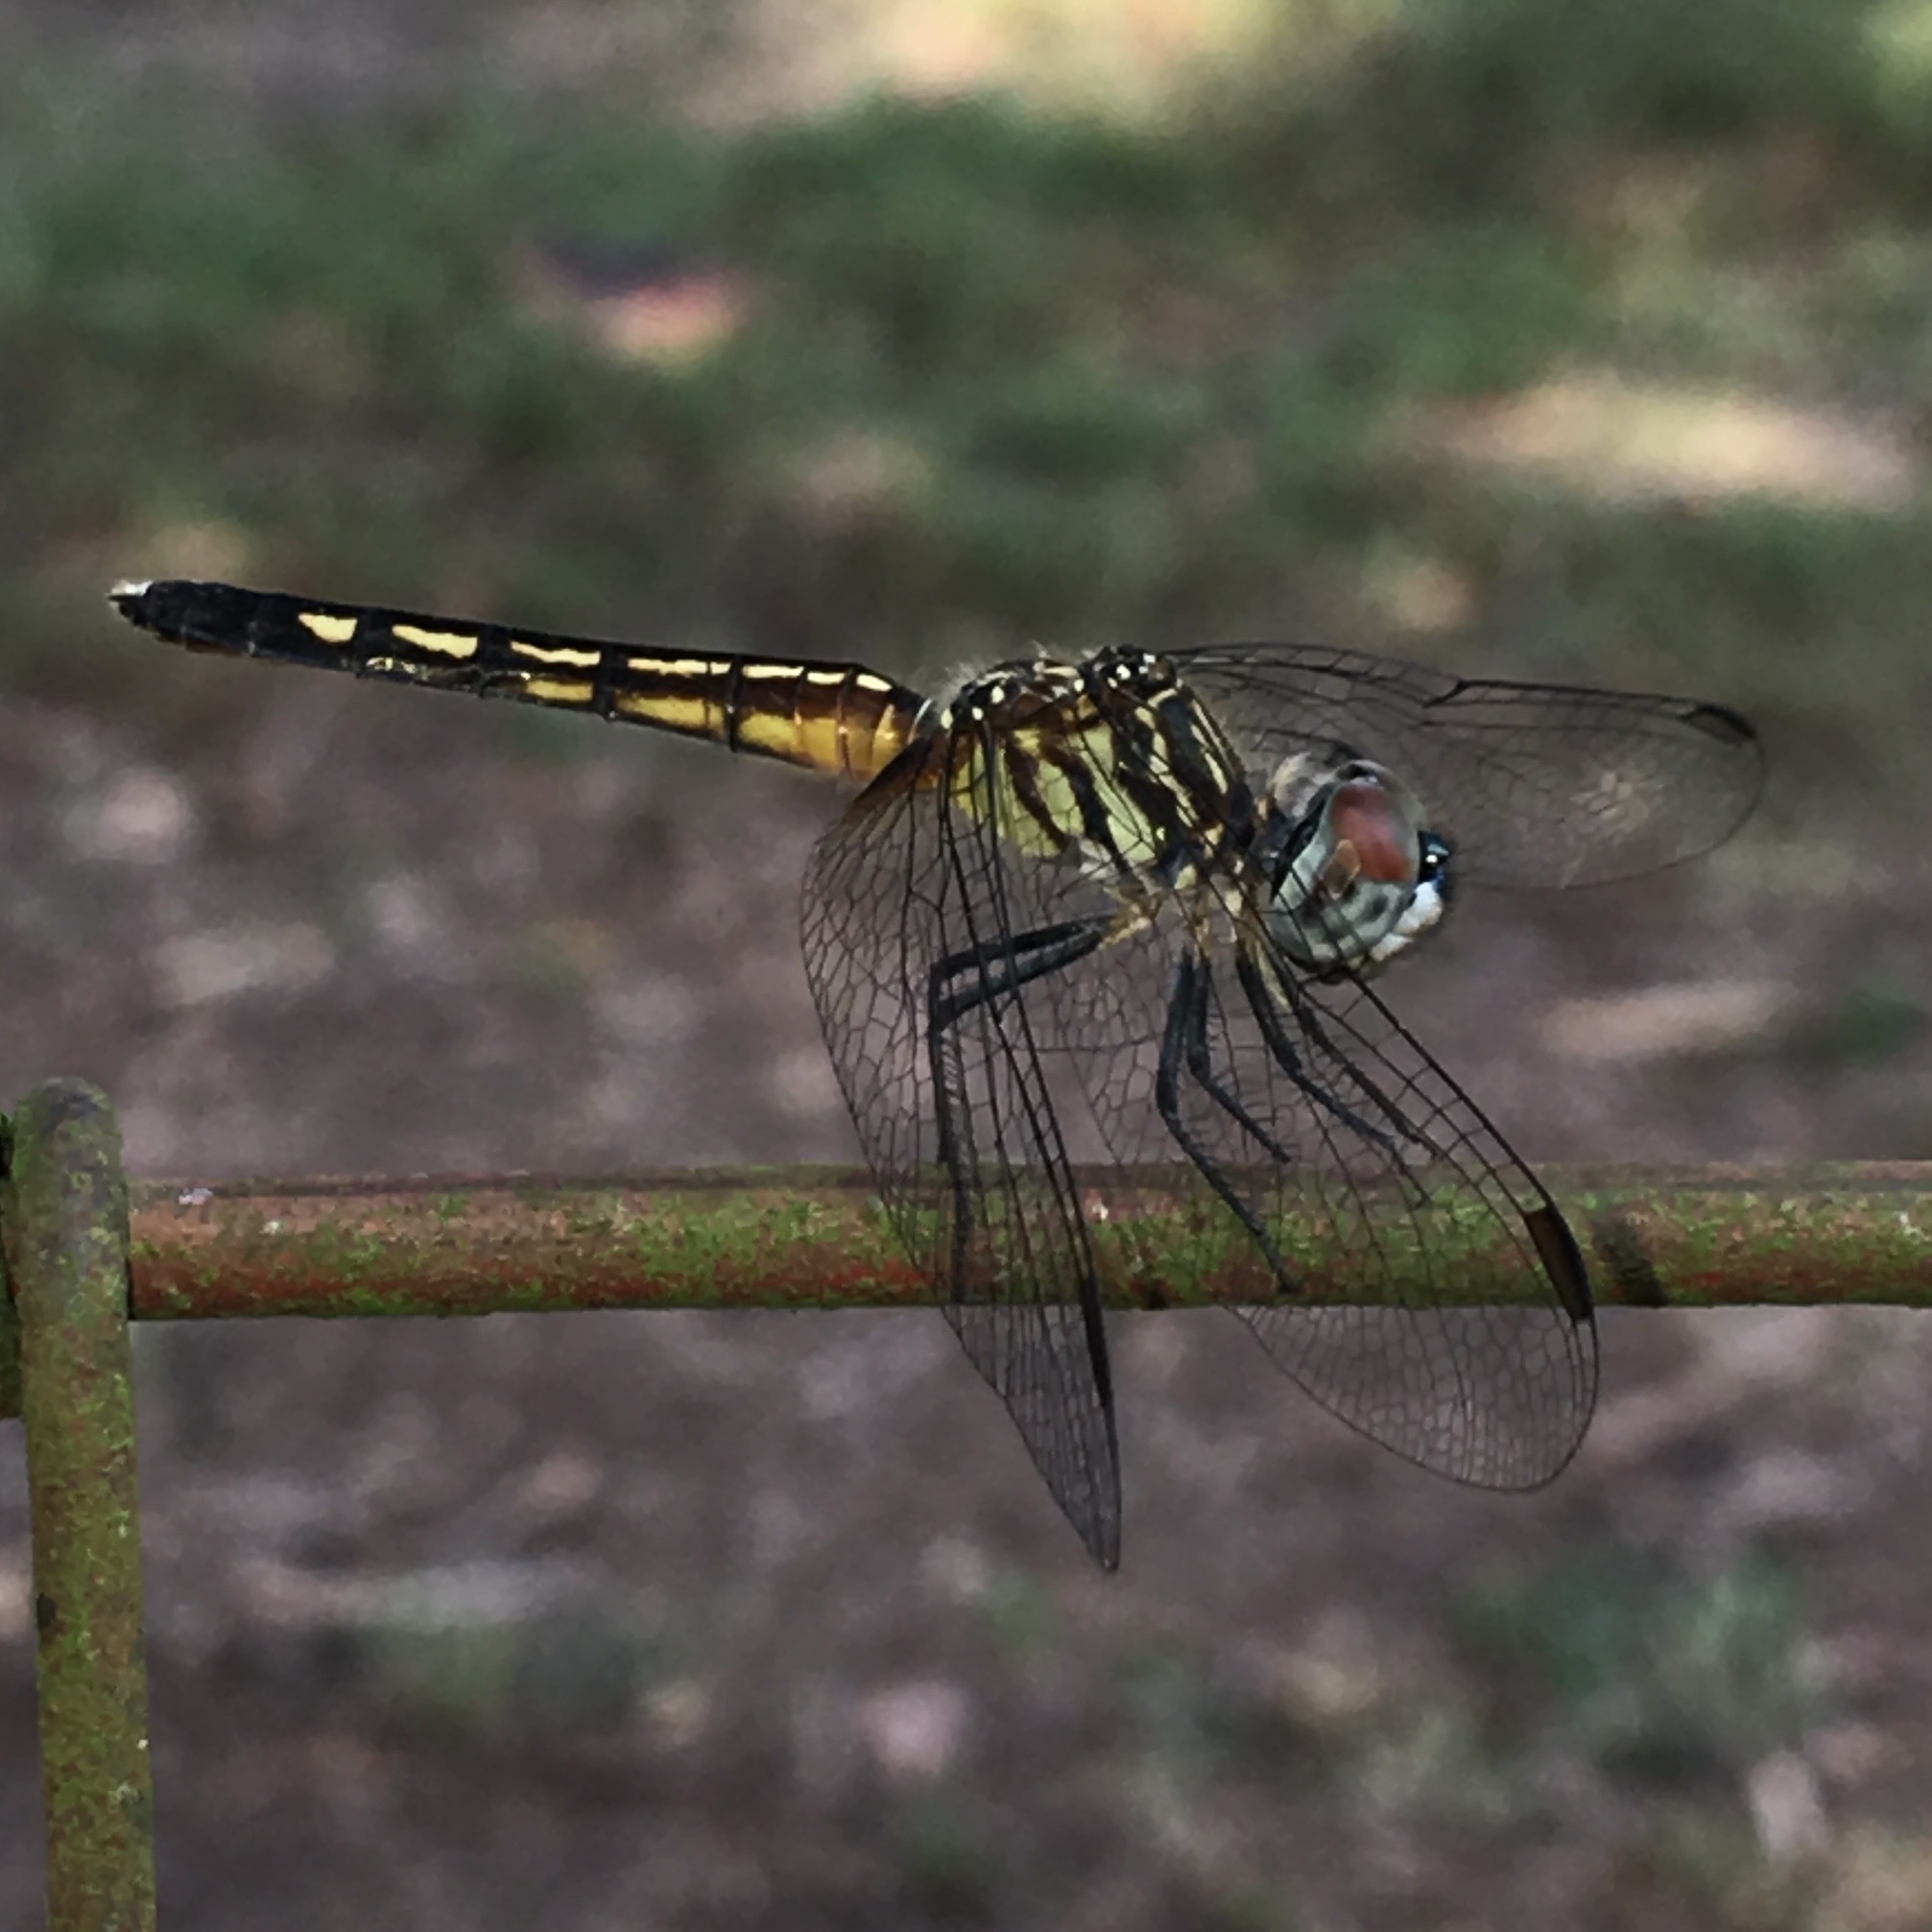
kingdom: Animalia
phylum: Arthropoda
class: Insecta
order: Odonata
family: Libellulidae
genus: Pachydiplax
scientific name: Pachydiplax longipennis
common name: Blue dasher
